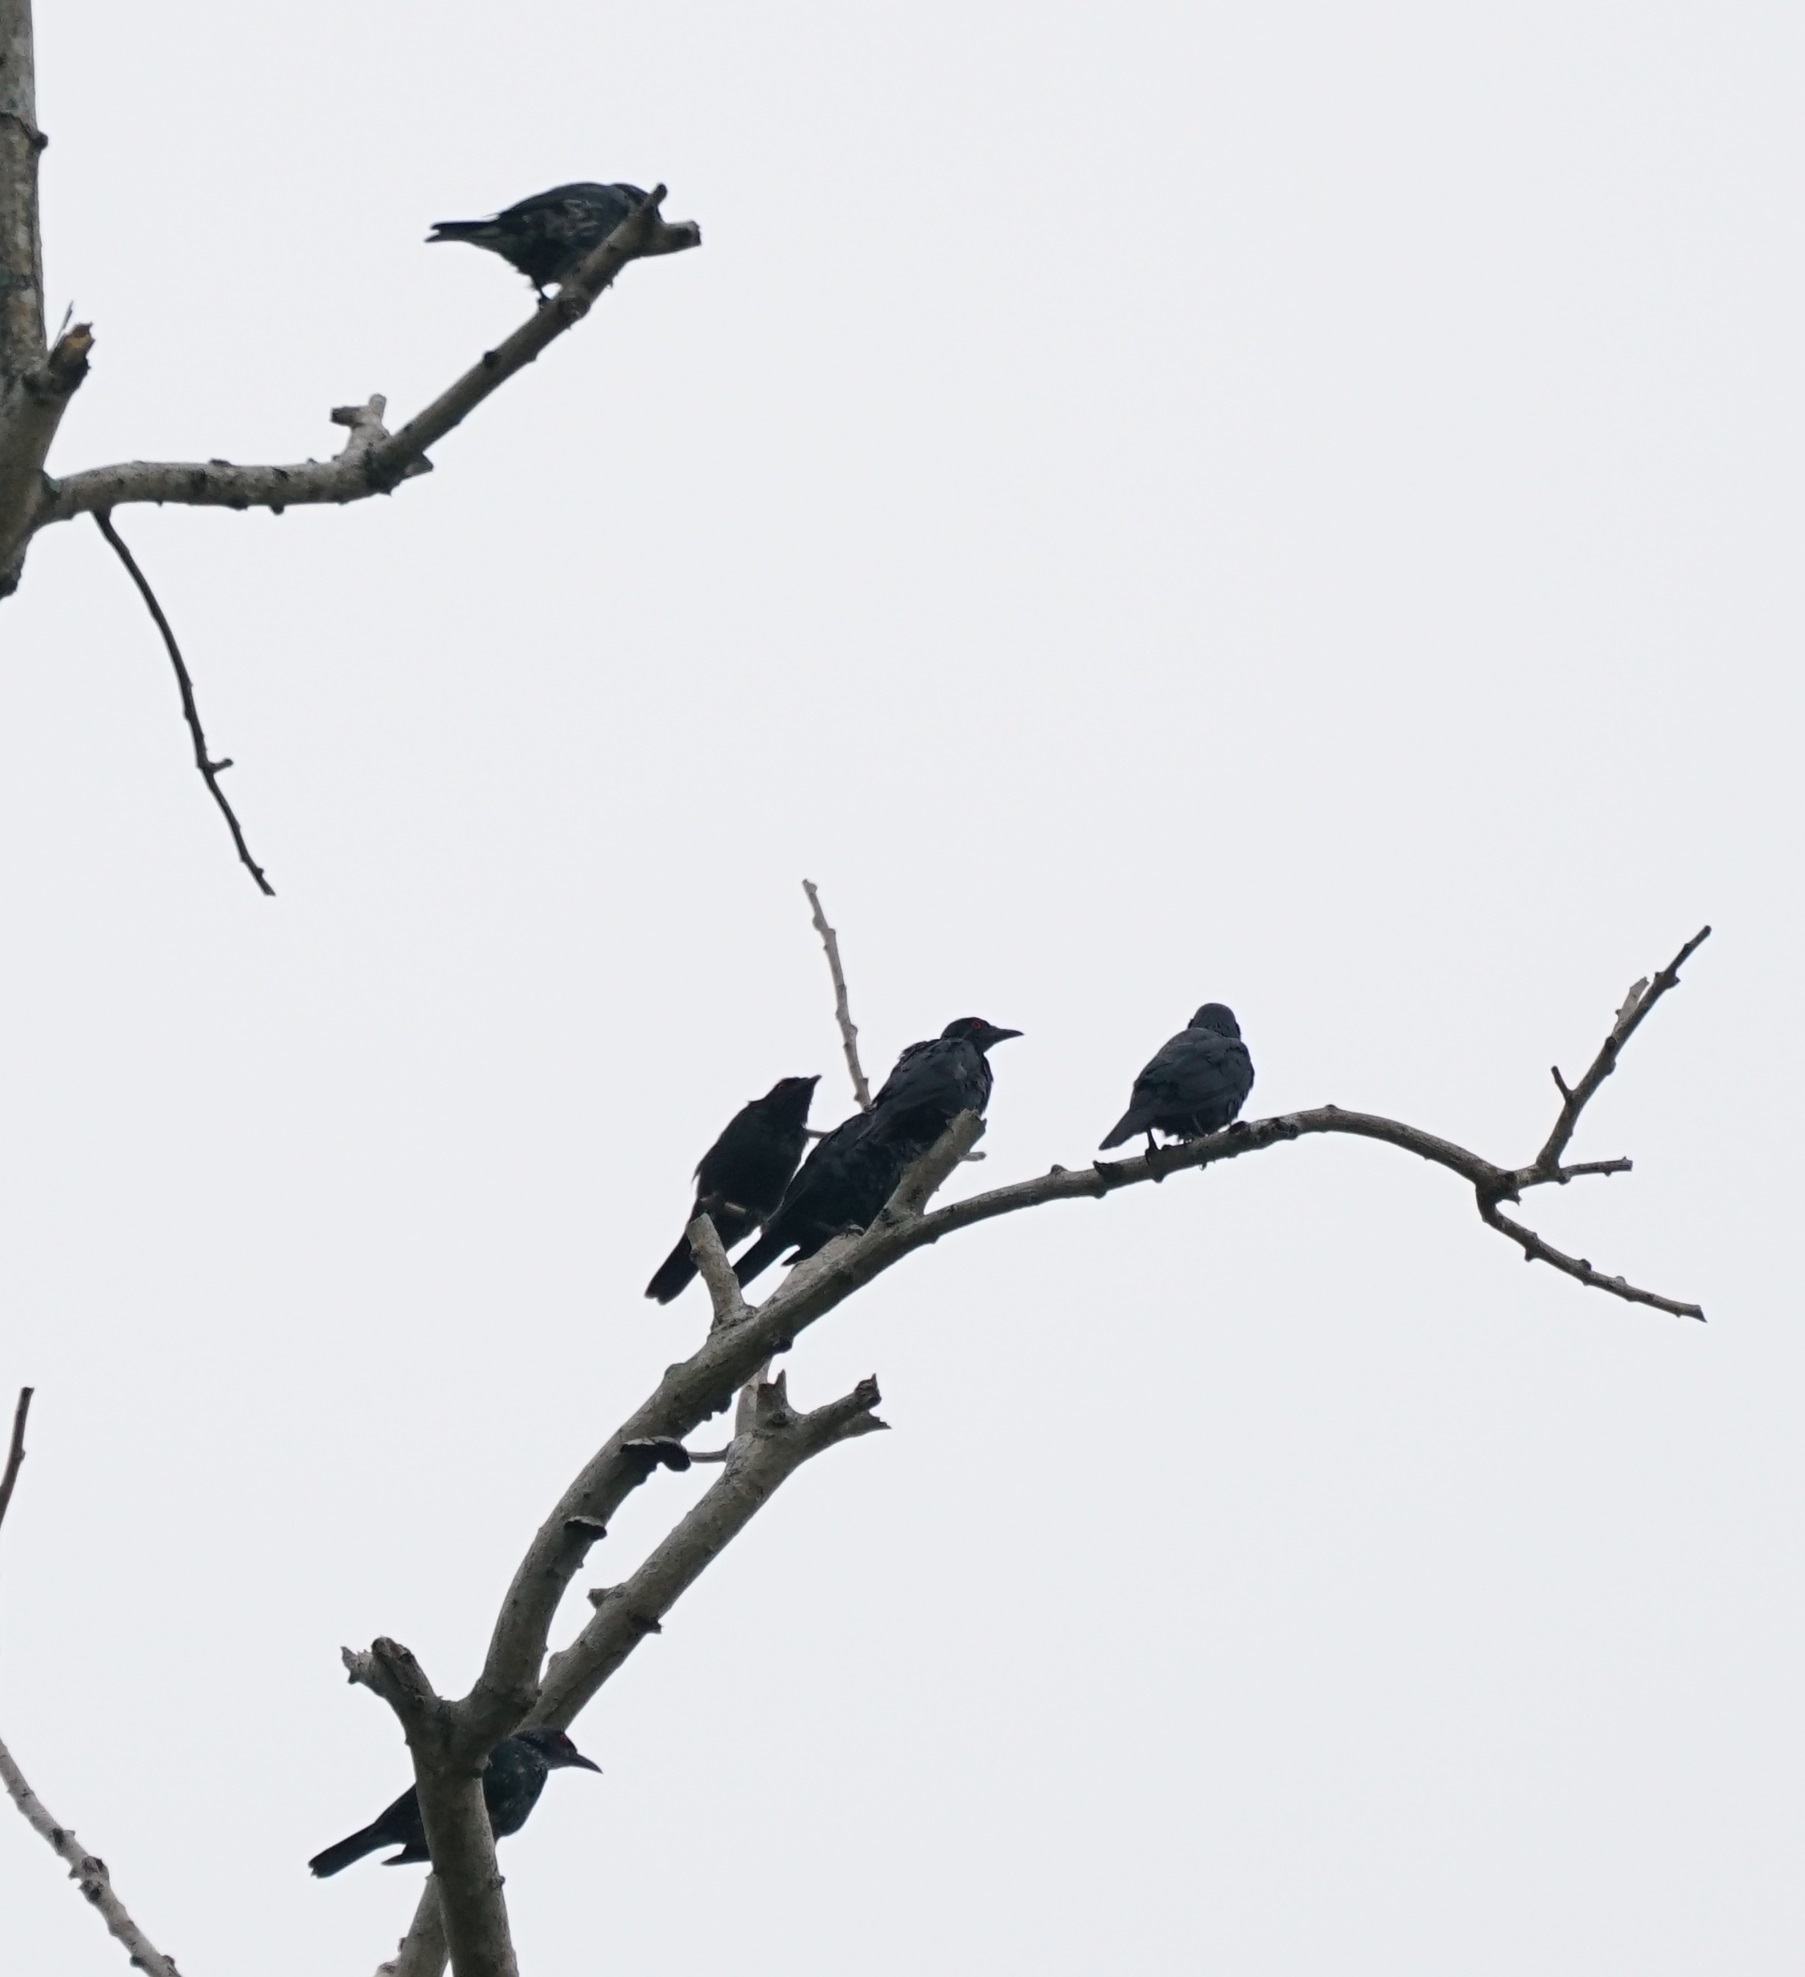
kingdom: Animalia
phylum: Chordata
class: Aves
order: Passeriformes
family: Sturnidae
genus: Aplonis
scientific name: Aplonis panayensis
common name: Asian glossy starling
